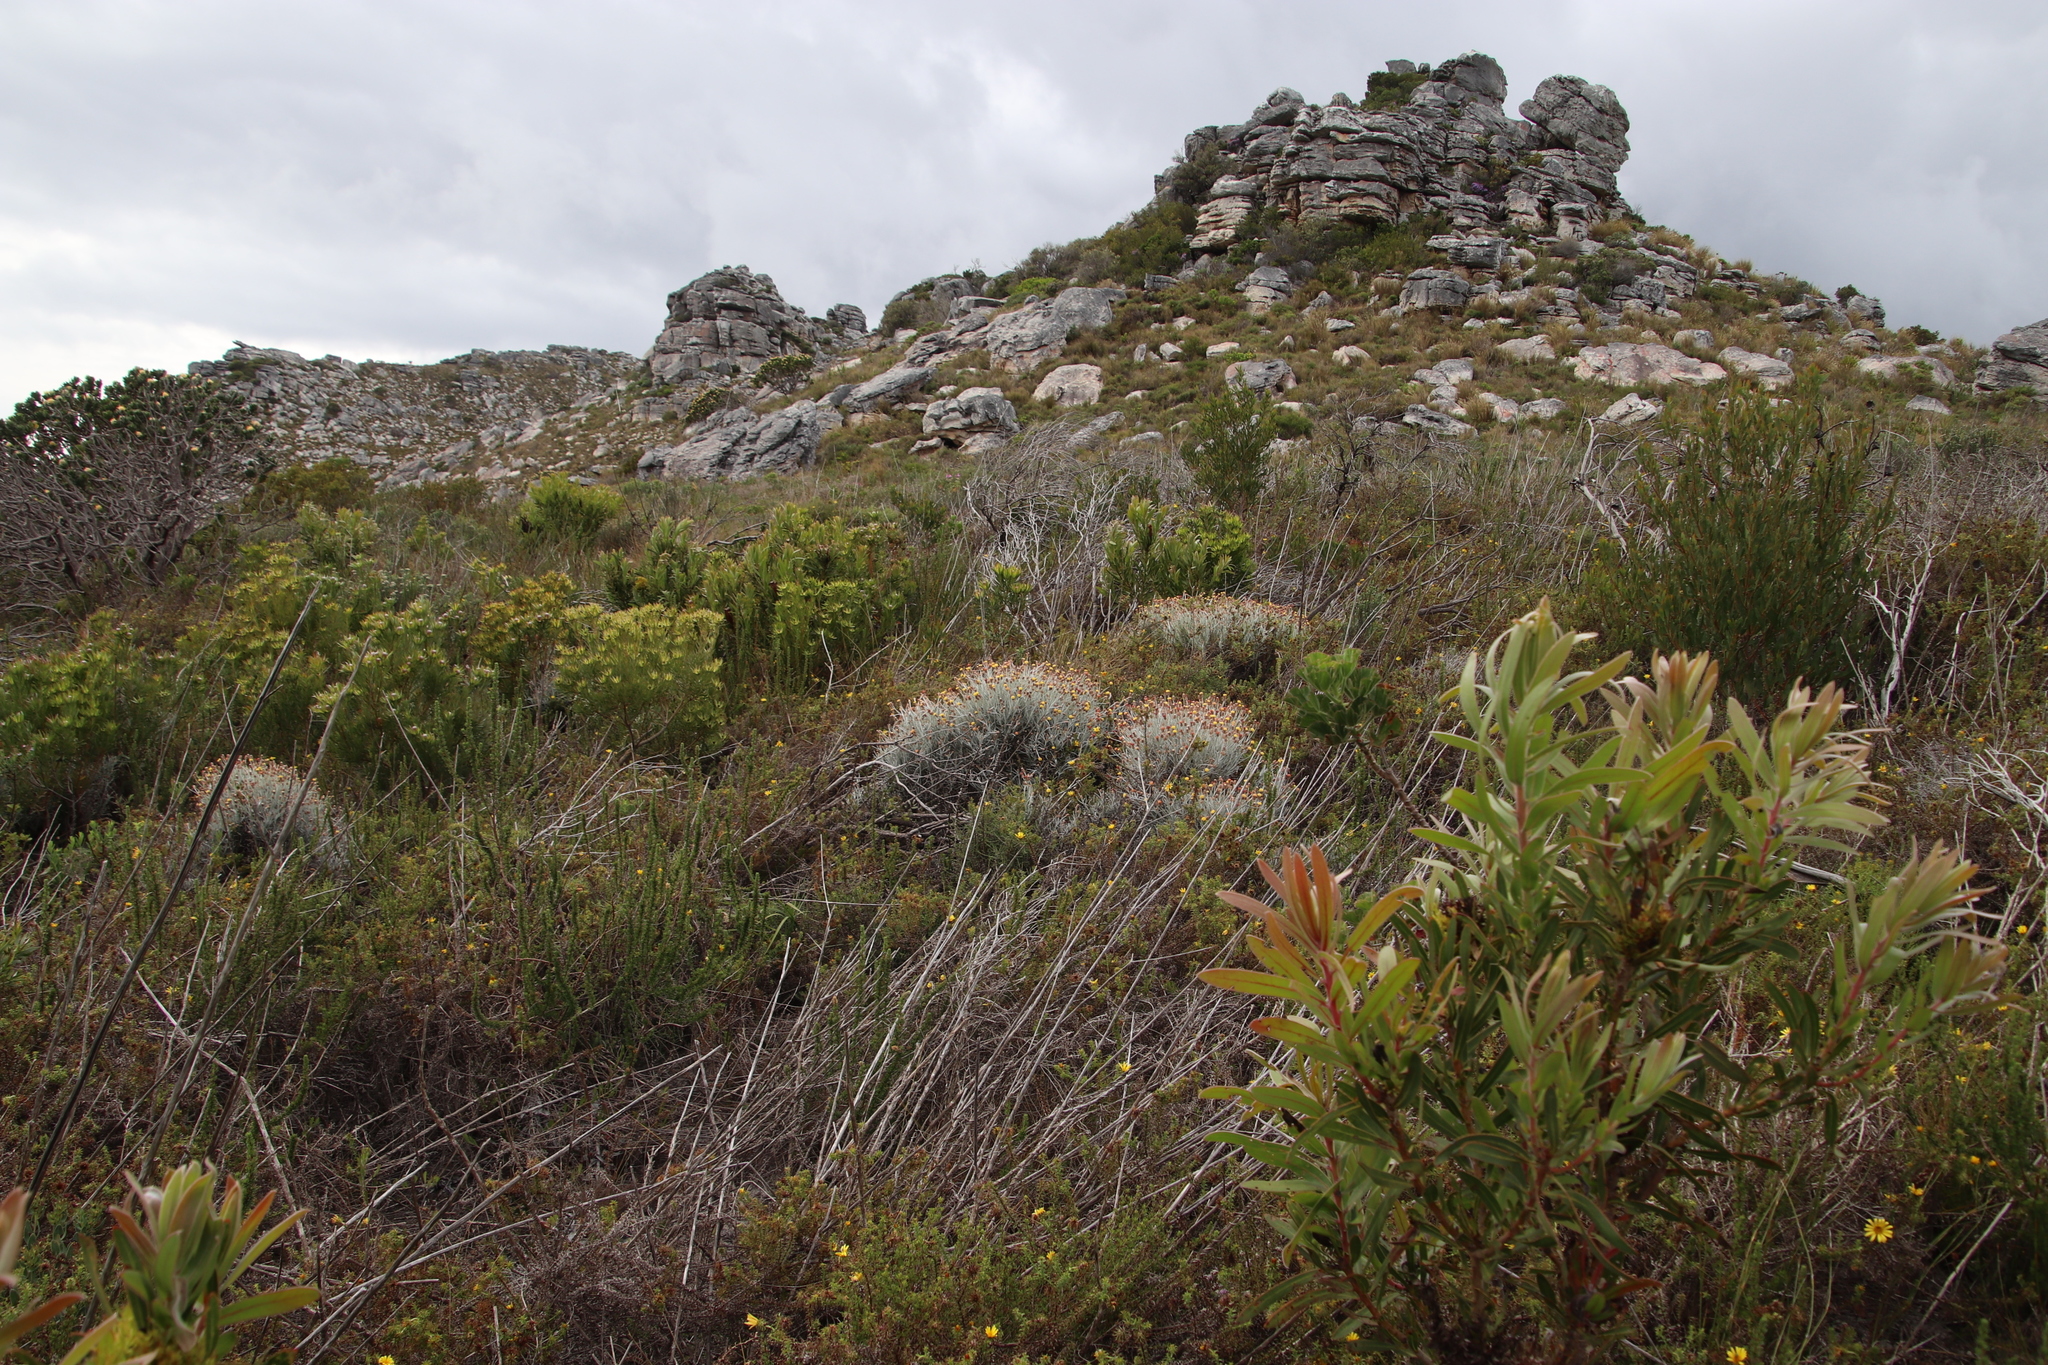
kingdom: Plantae
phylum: Tracheophyta
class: Magnoliopsida
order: Asterales
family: Asteraceae
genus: Syncarpha
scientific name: Syncarpha gnaphaloides
